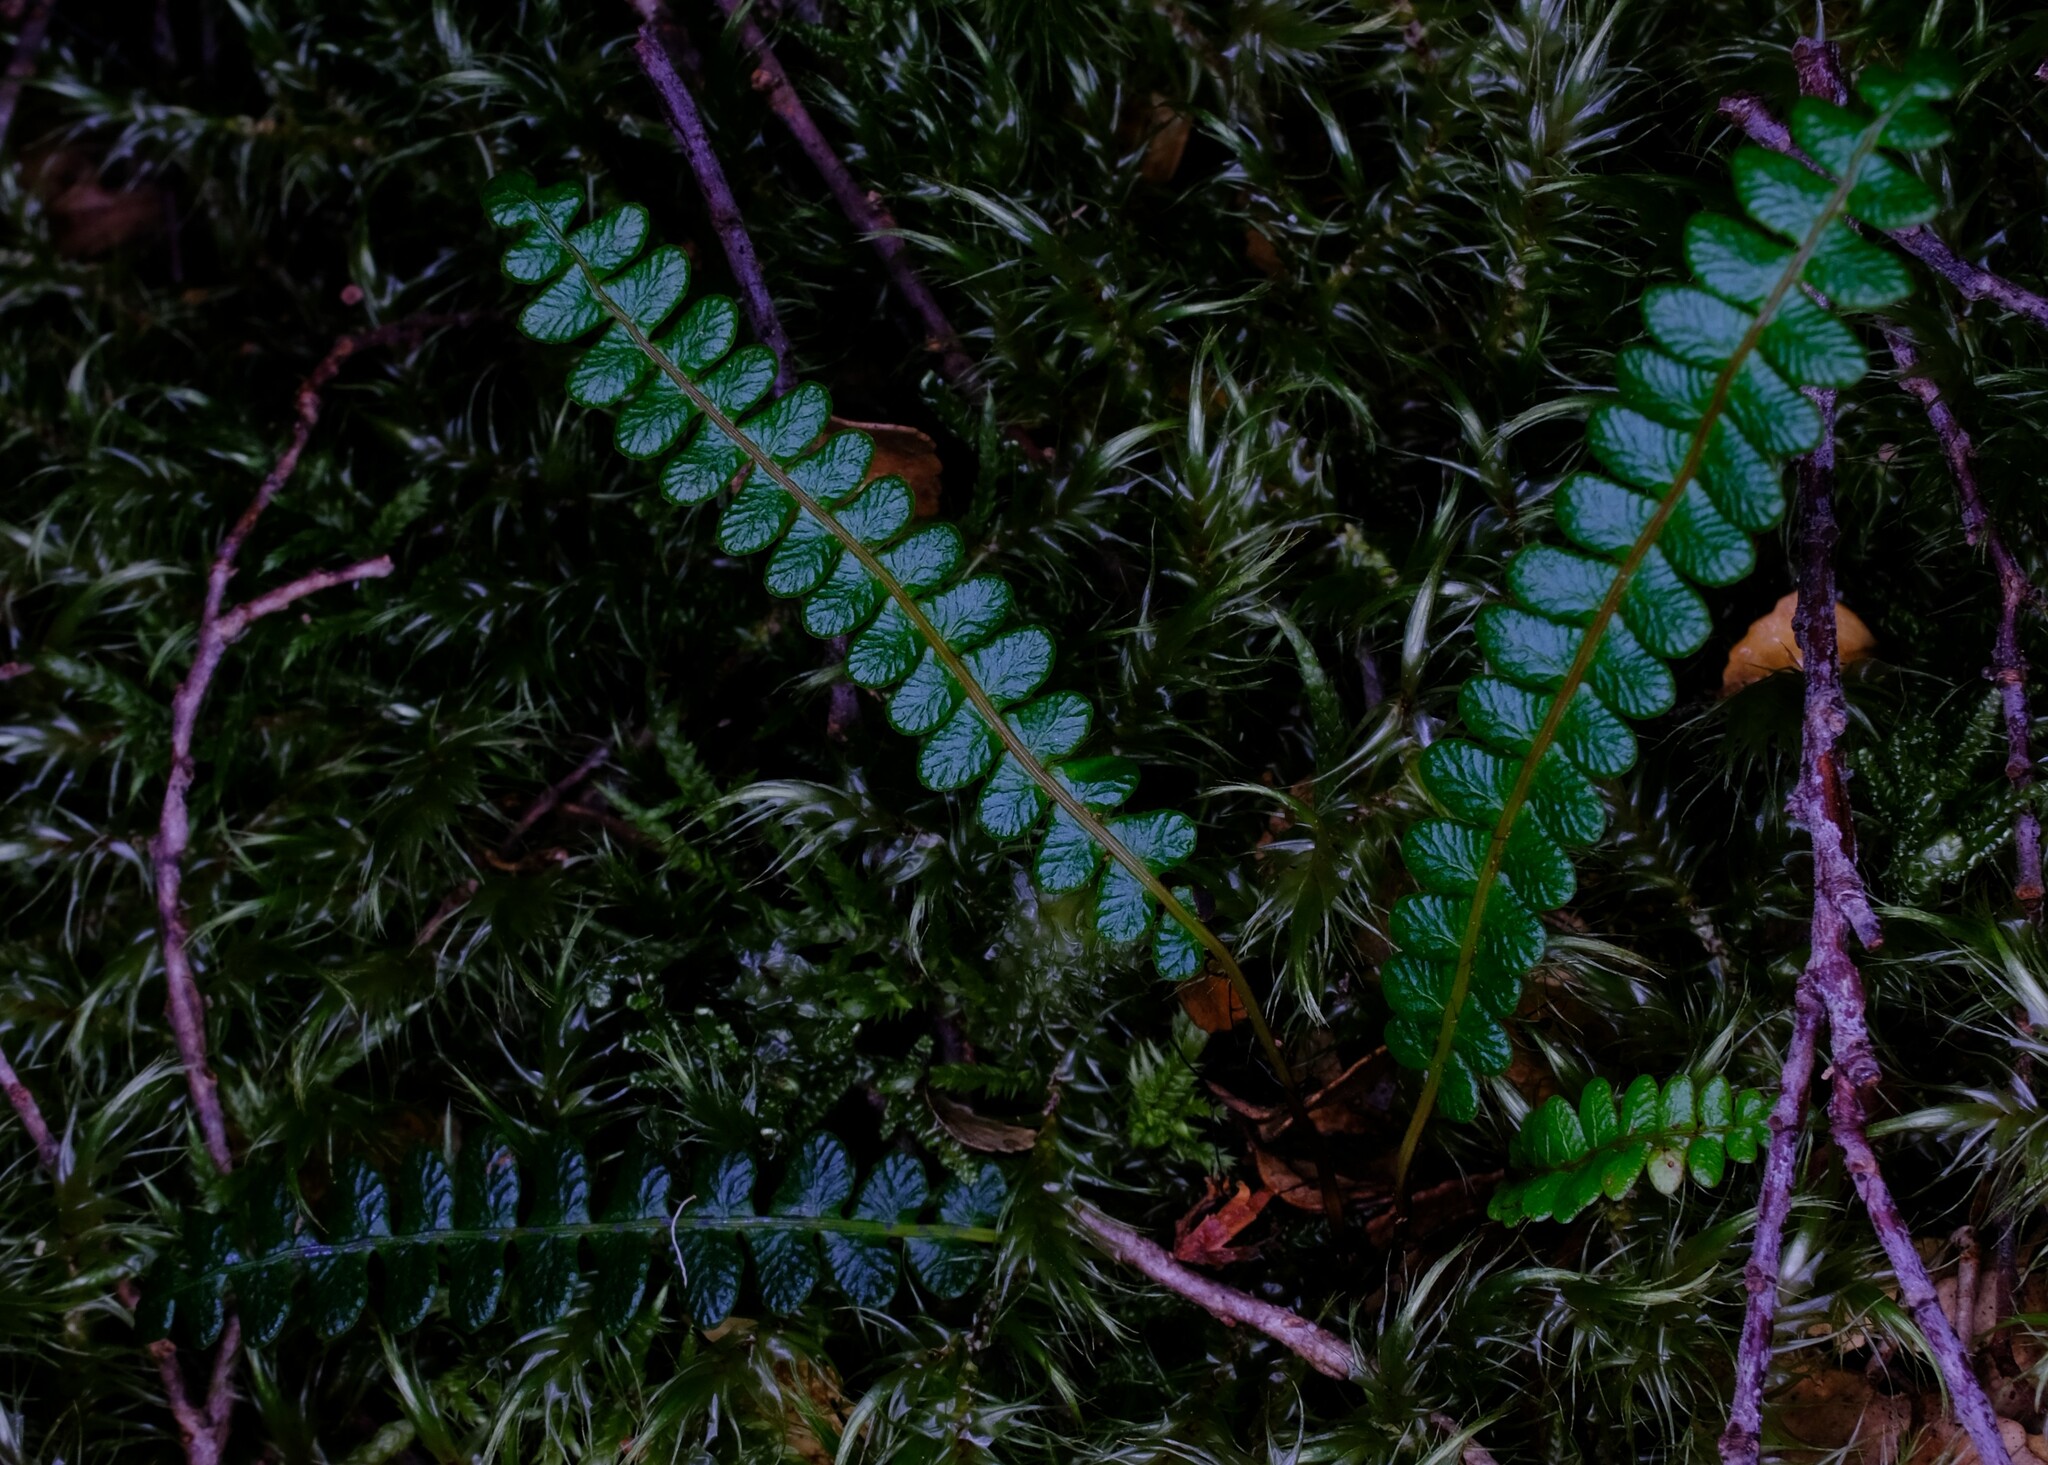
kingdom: Plantae
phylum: Tracheophyta
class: Polypodiopsida
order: Polypodiales
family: Blechnaceae
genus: Austroblechnum
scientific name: Austroblechnum penna-marina
